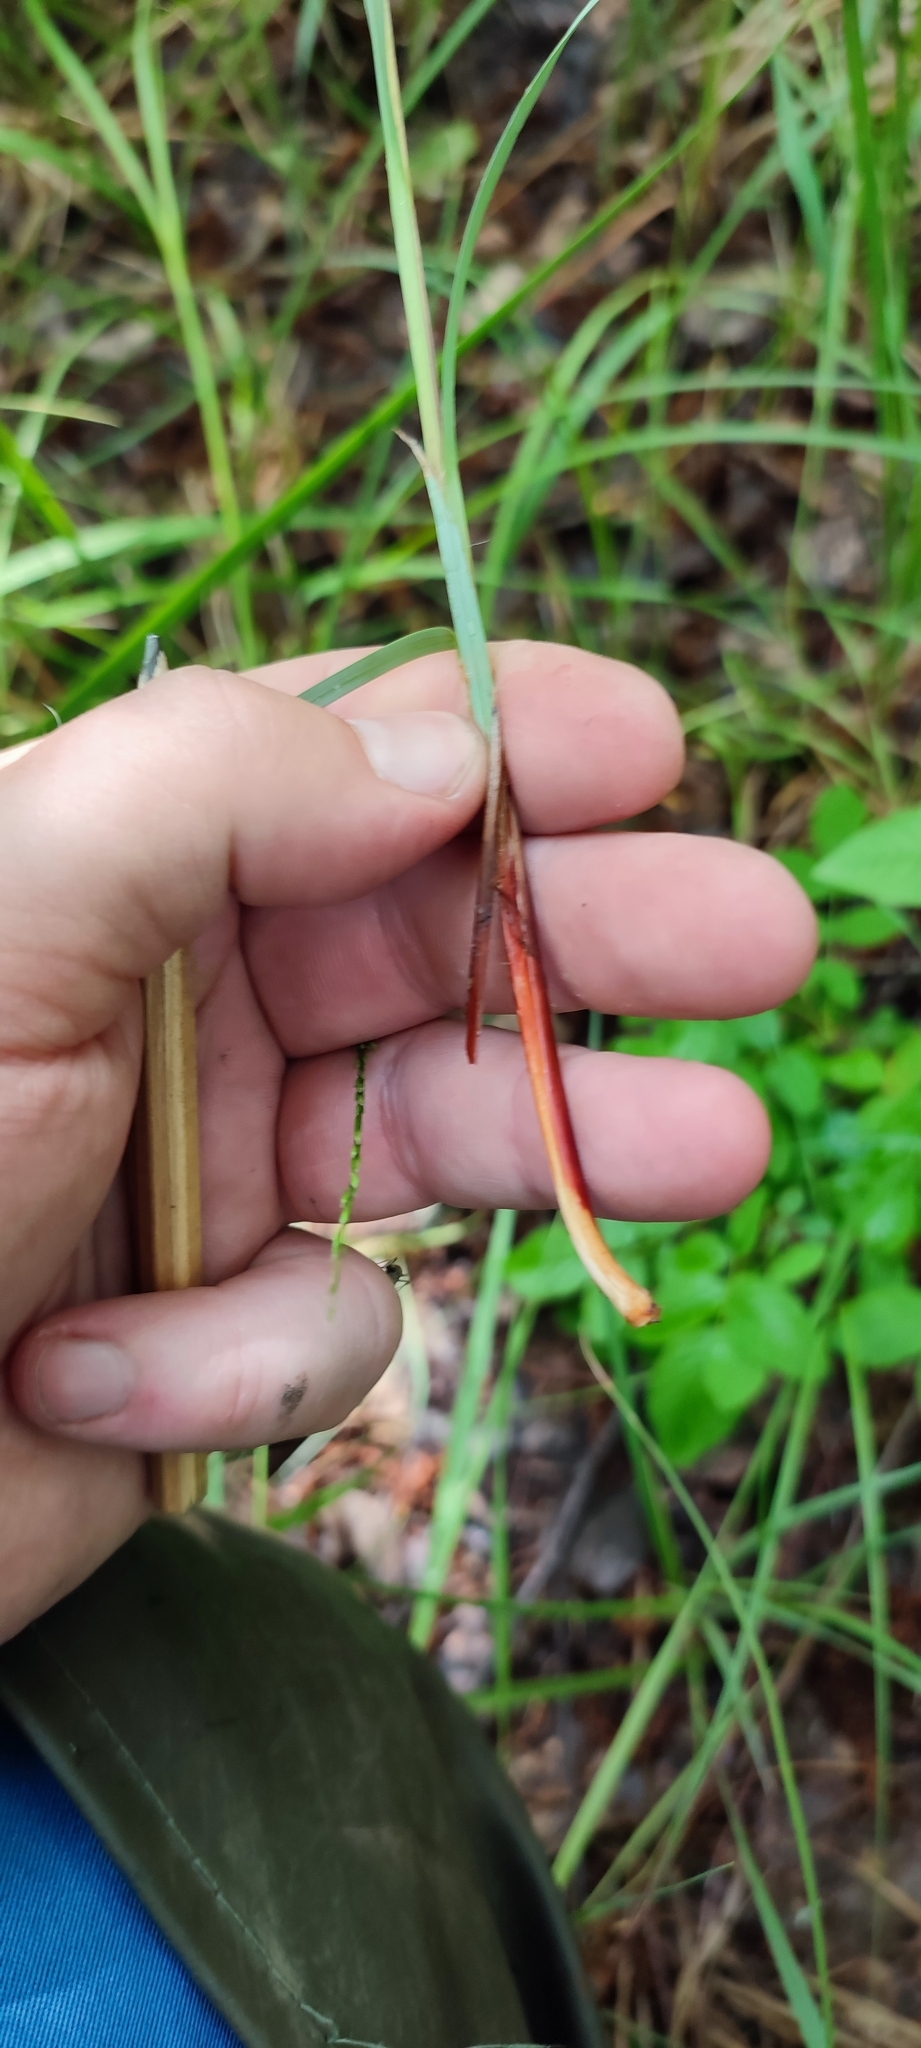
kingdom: Plantae
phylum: Tracheophyta
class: Liliopsida
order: Poales
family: Cyperaceae
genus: Carex
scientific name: Carex buxbaumii
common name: Club sedge
